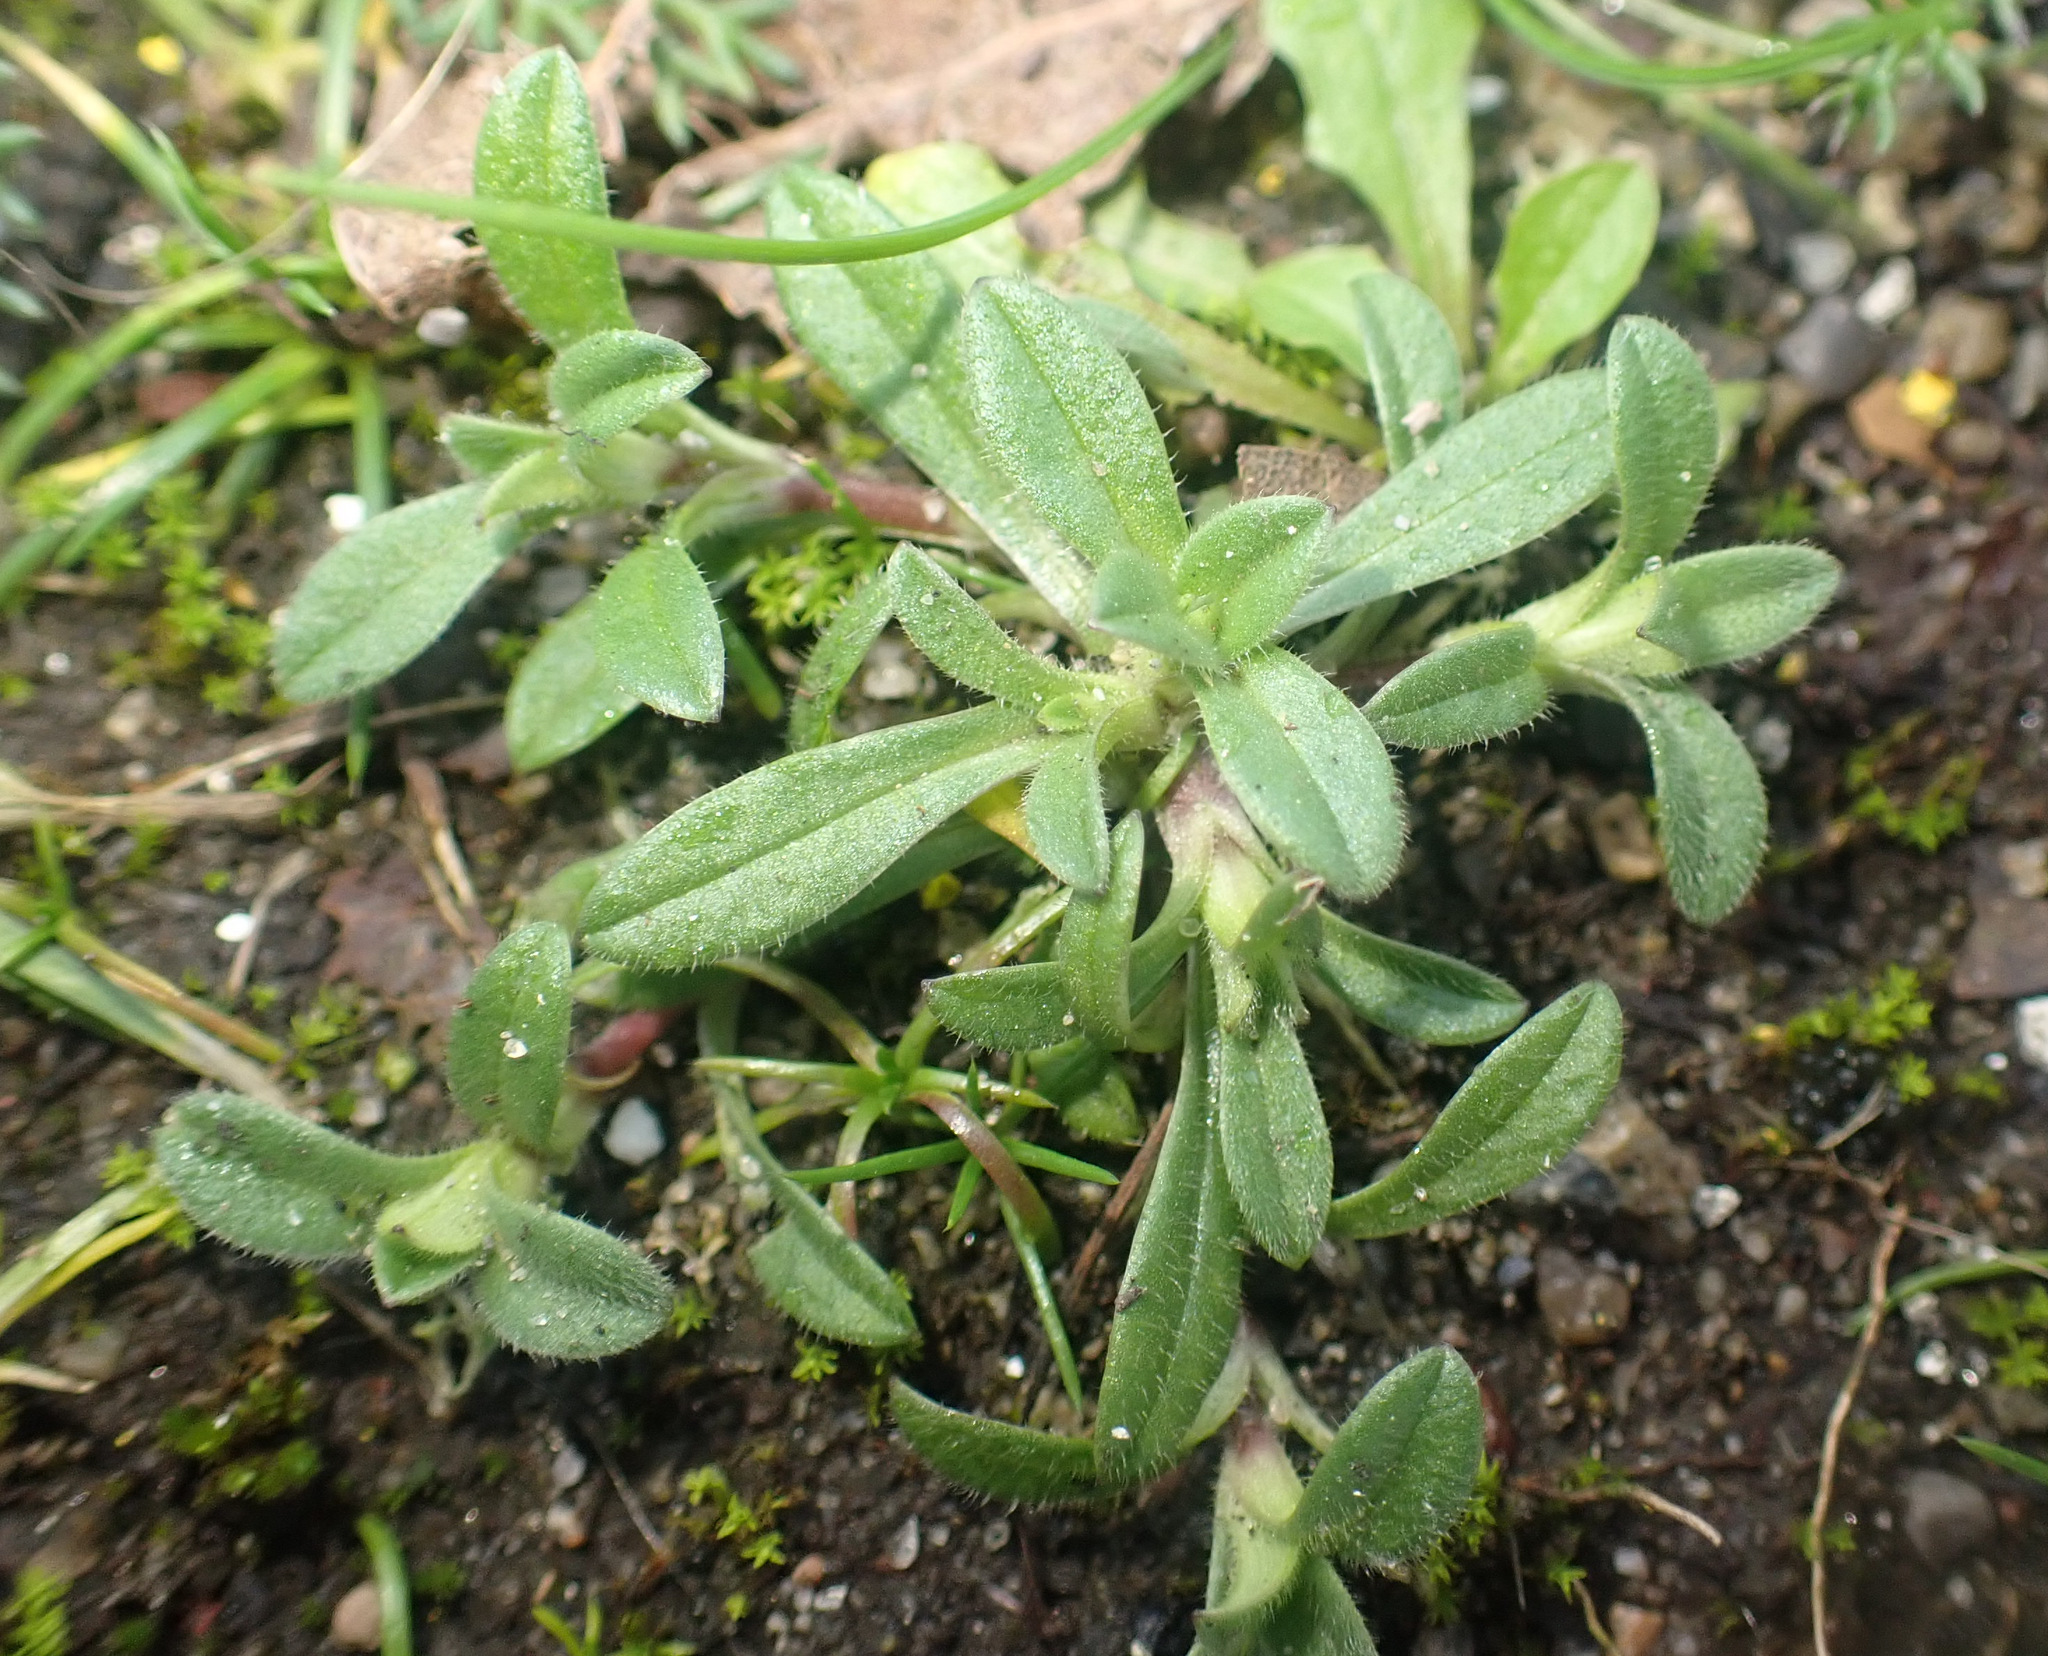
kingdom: Plantae
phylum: Tracheophyta
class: Magnoliopsida
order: Caryophyllales
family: Caryophyllaceae
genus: Cerastium
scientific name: Cerastium semidecandrum
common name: Little mouse-ear
